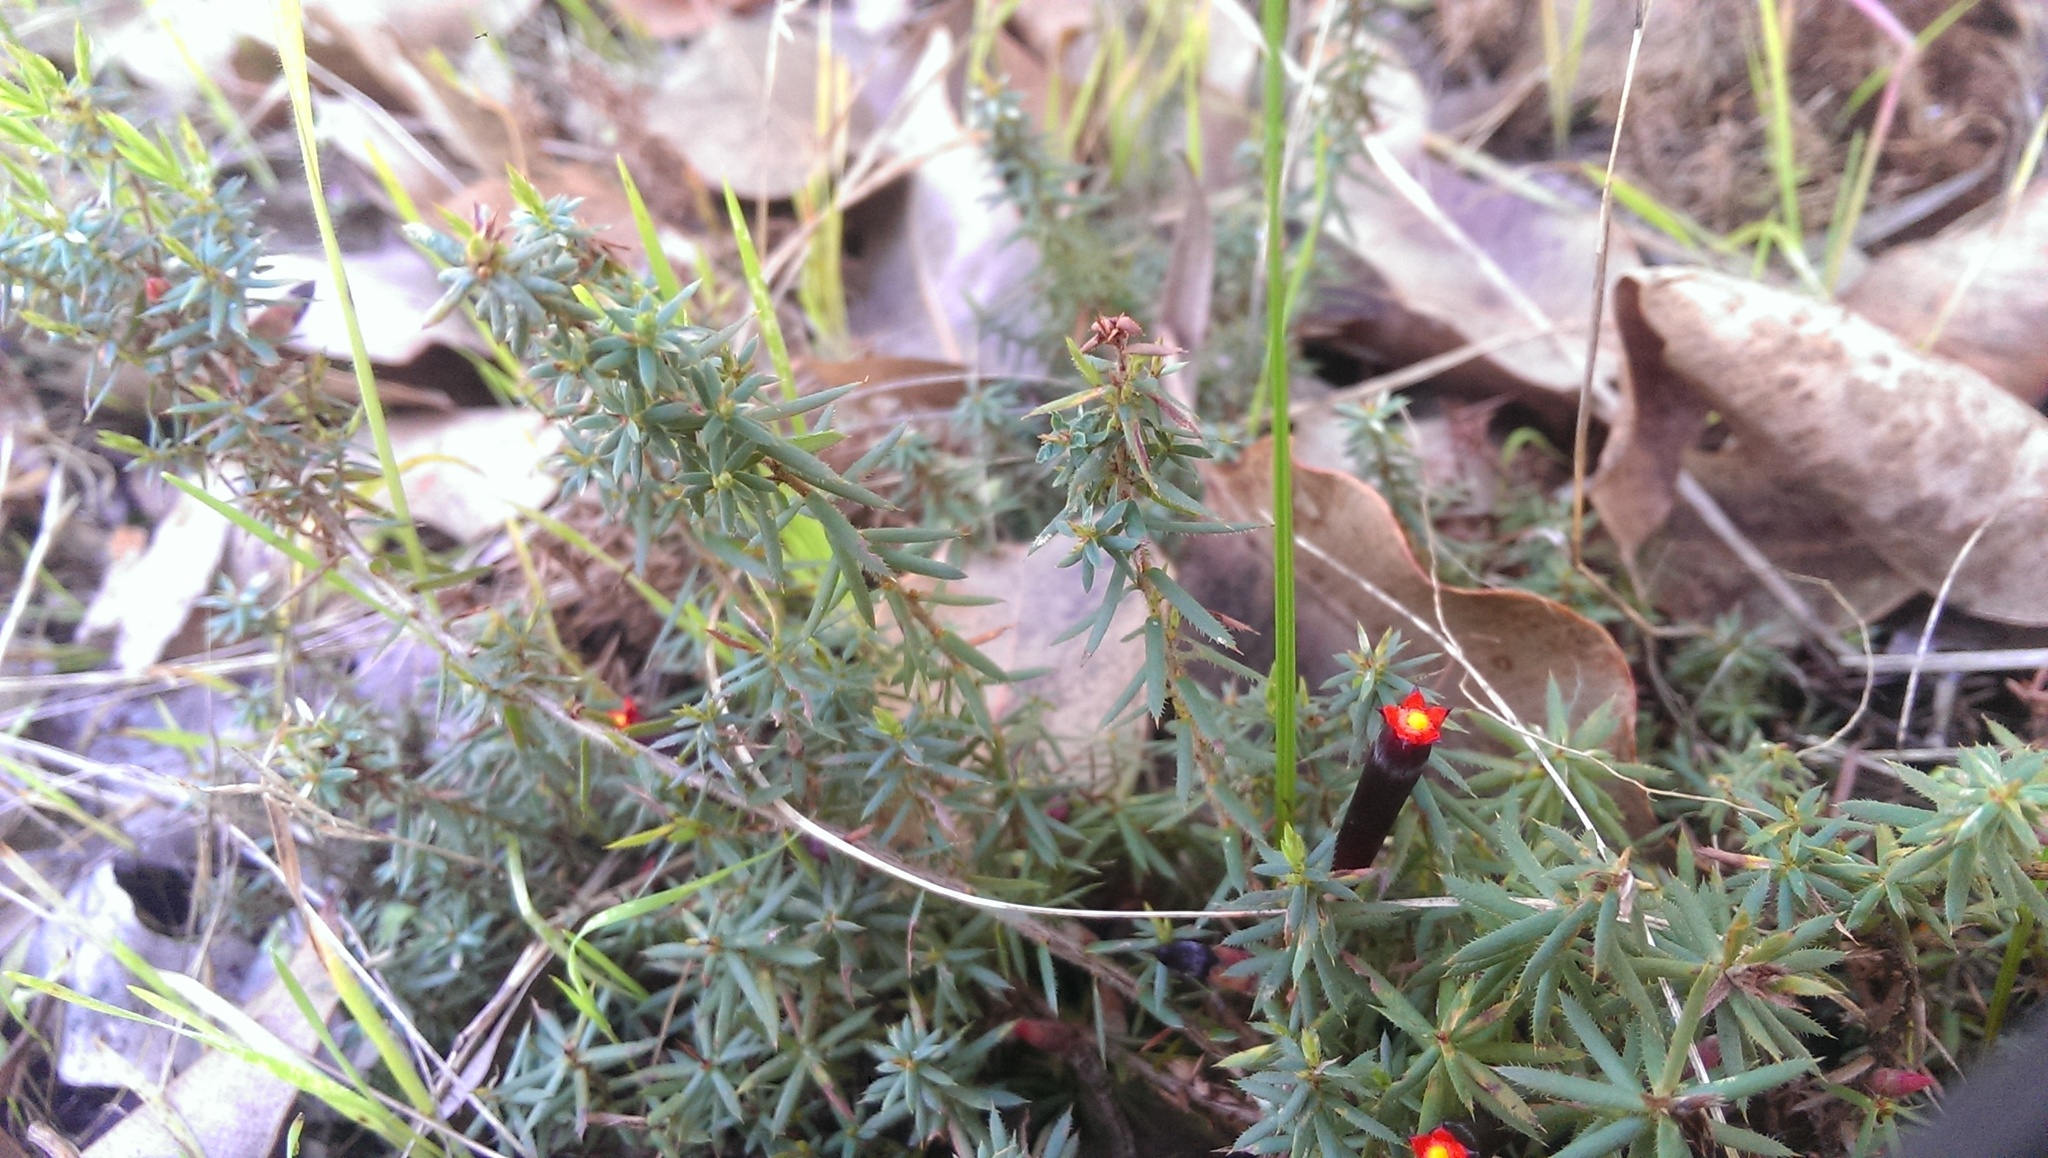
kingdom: Plantae
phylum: Tracheophyta
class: Magnoliopsida
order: Ericales
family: Ericaceae
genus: Styphelia
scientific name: Styphelia discolor
